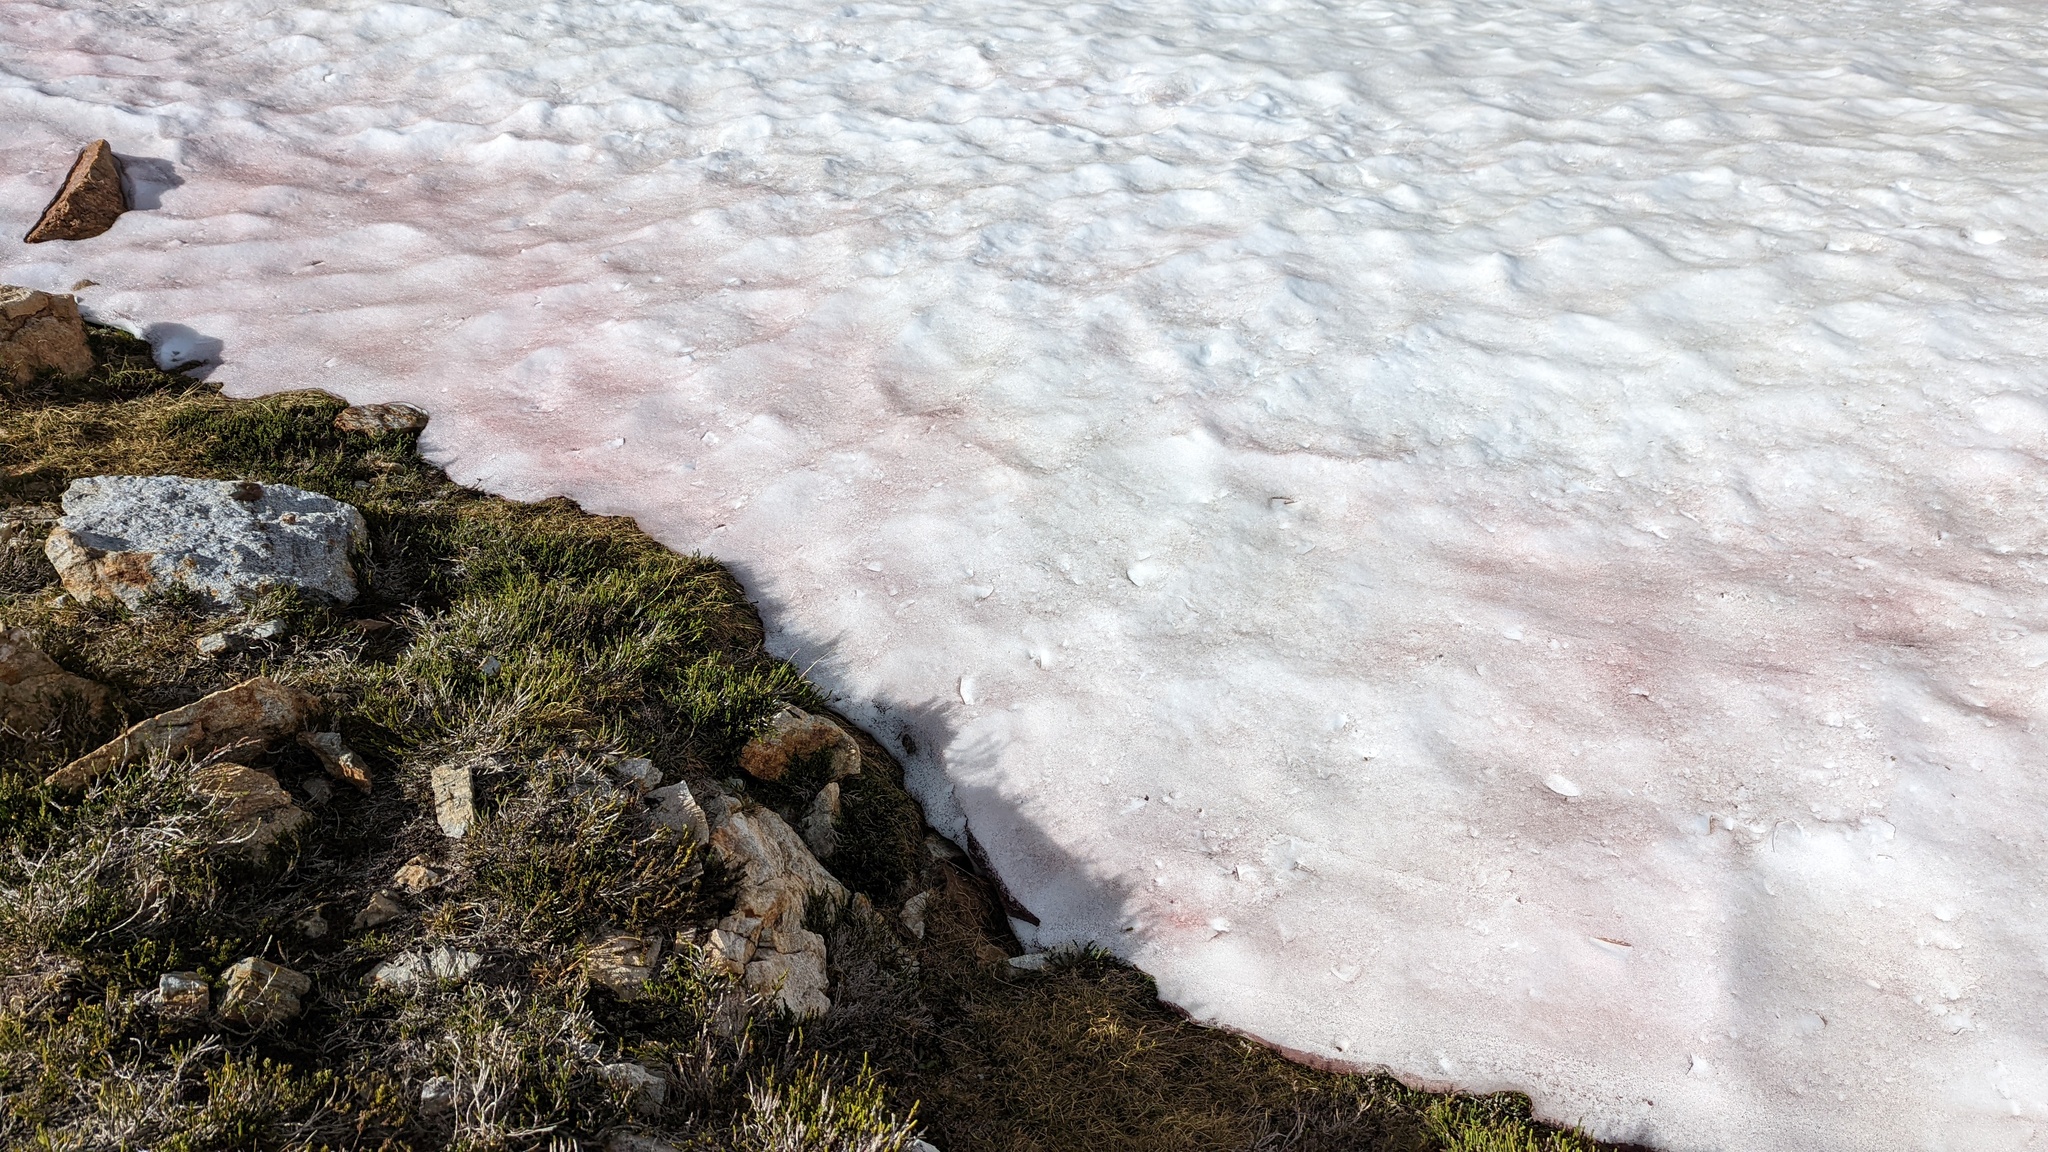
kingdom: Plantae
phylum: Chlorophyta
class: Chlorophyceae
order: Volvocales
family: Chlamydomonadaceae
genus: Chlamydomonas
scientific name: Chlamydomonas nivalis
